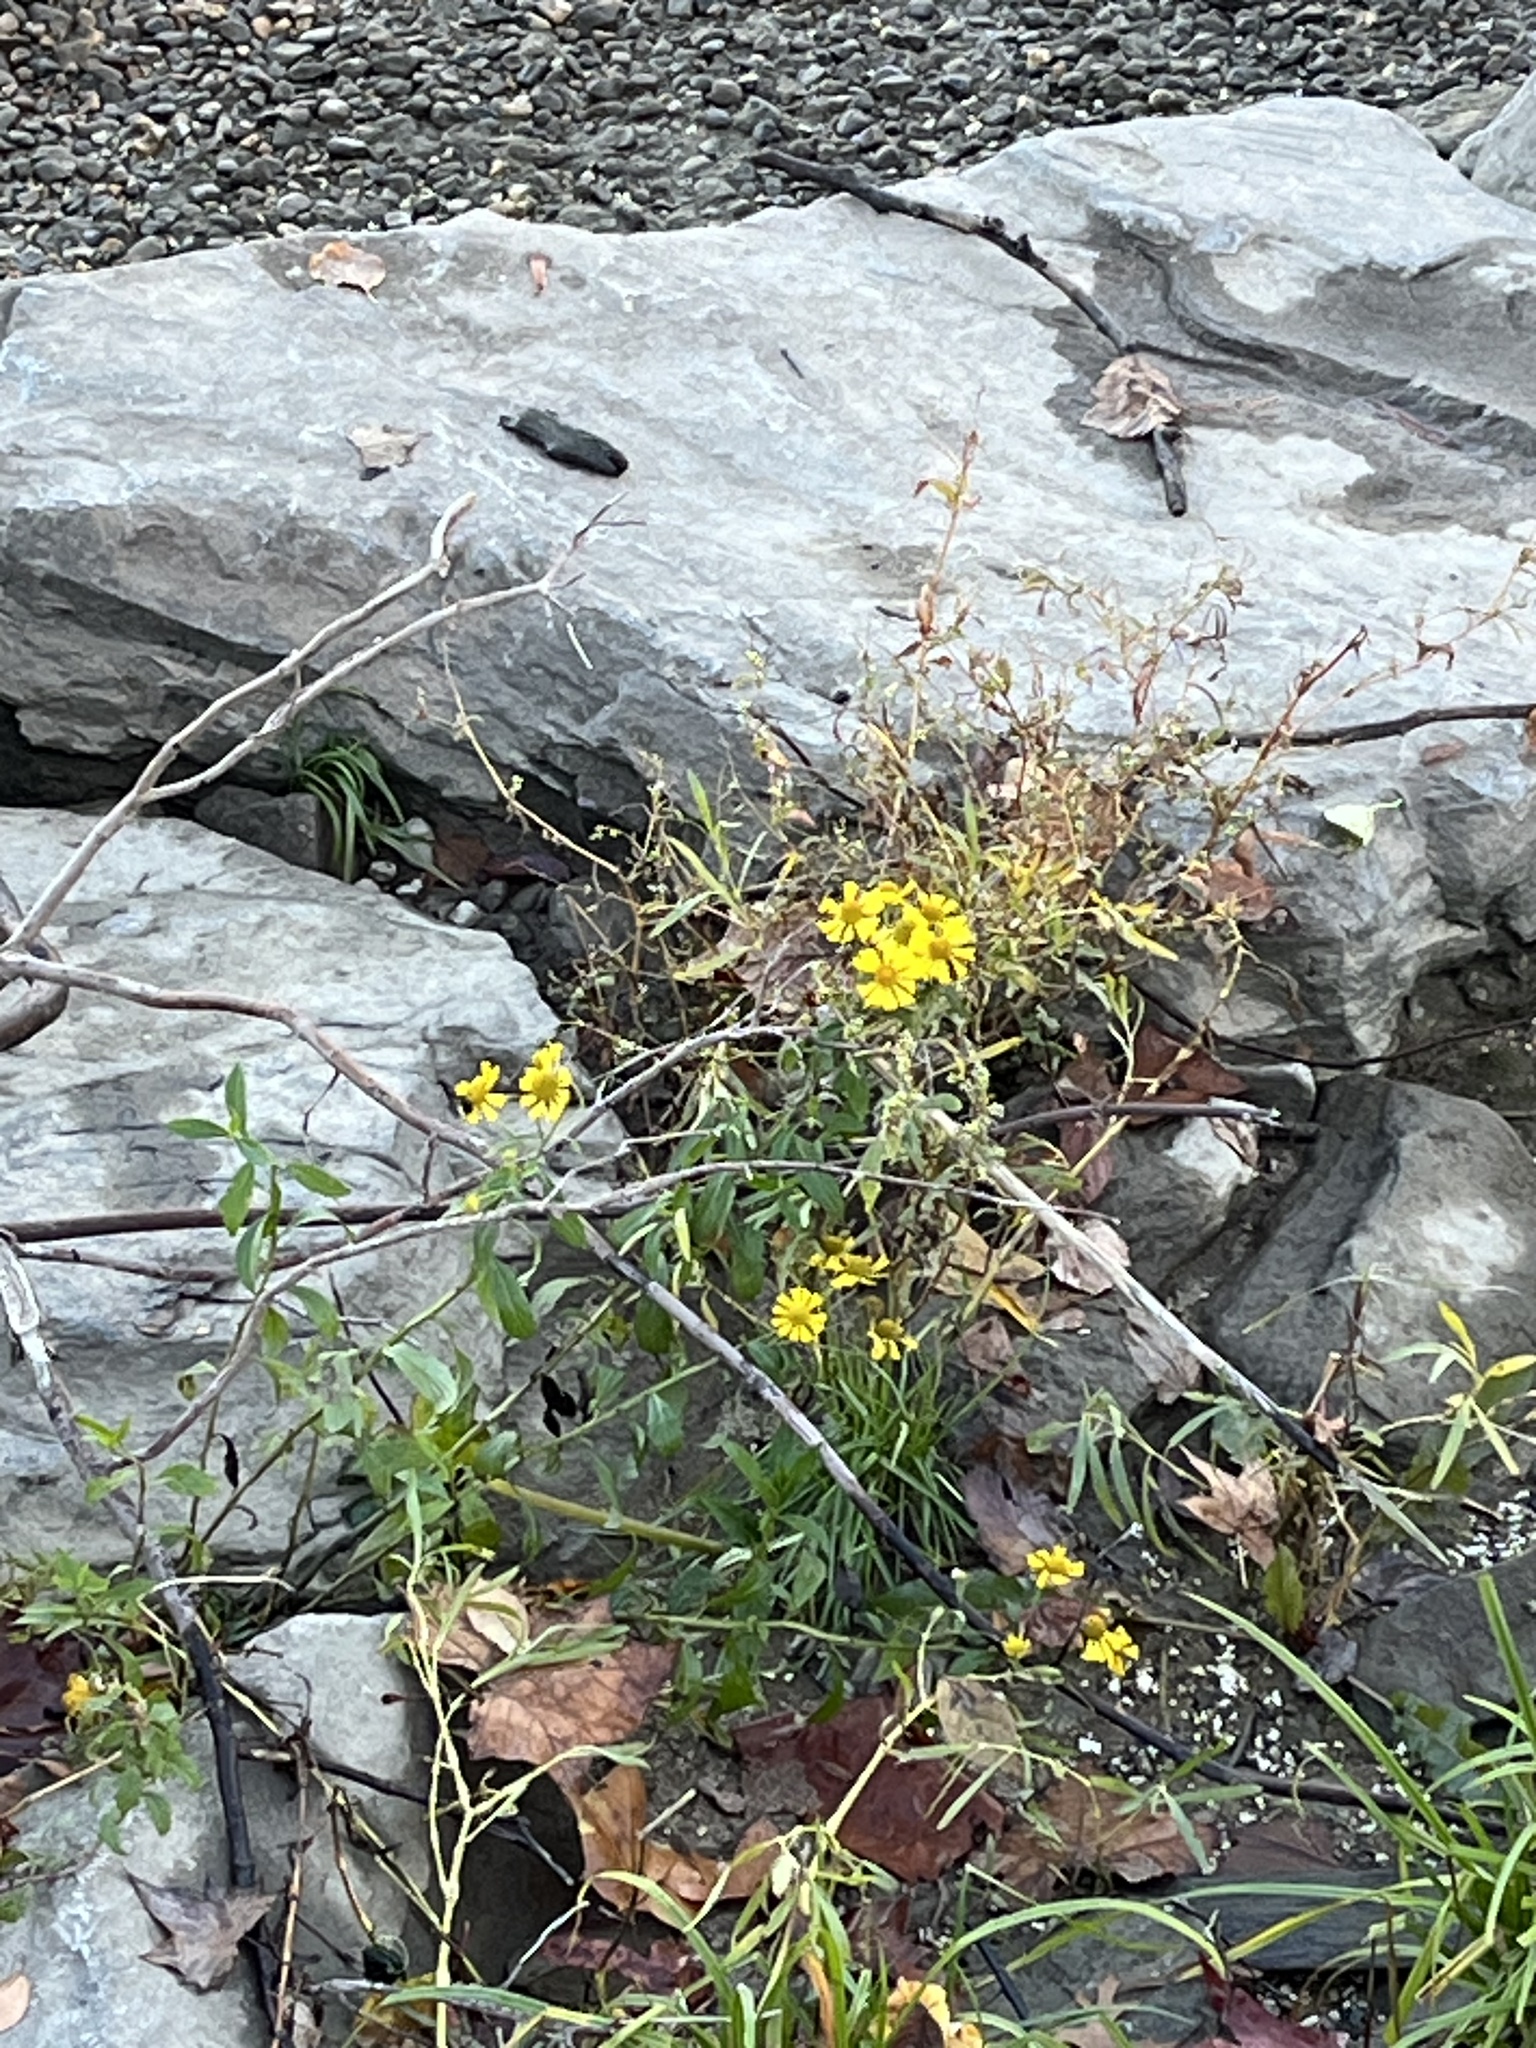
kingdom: Plantae
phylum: Tracheophyta
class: Magnoliopsida
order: Asterales
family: Asteraceae
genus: Helenium
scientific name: Helenium autumnale
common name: Sneezeweed
